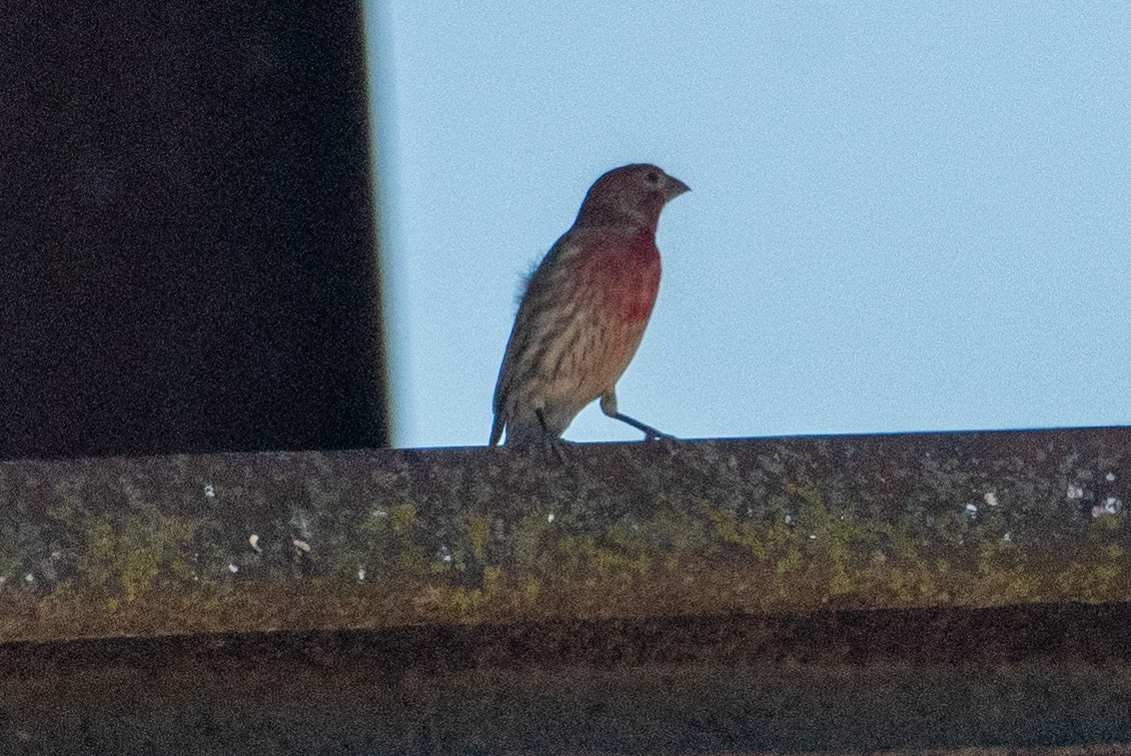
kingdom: Animalia
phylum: Chordata
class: Aves
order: Passeriformes
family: Fringillidae
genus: Haemorhous
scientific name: Haemorhous mexicanus
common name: House finch
